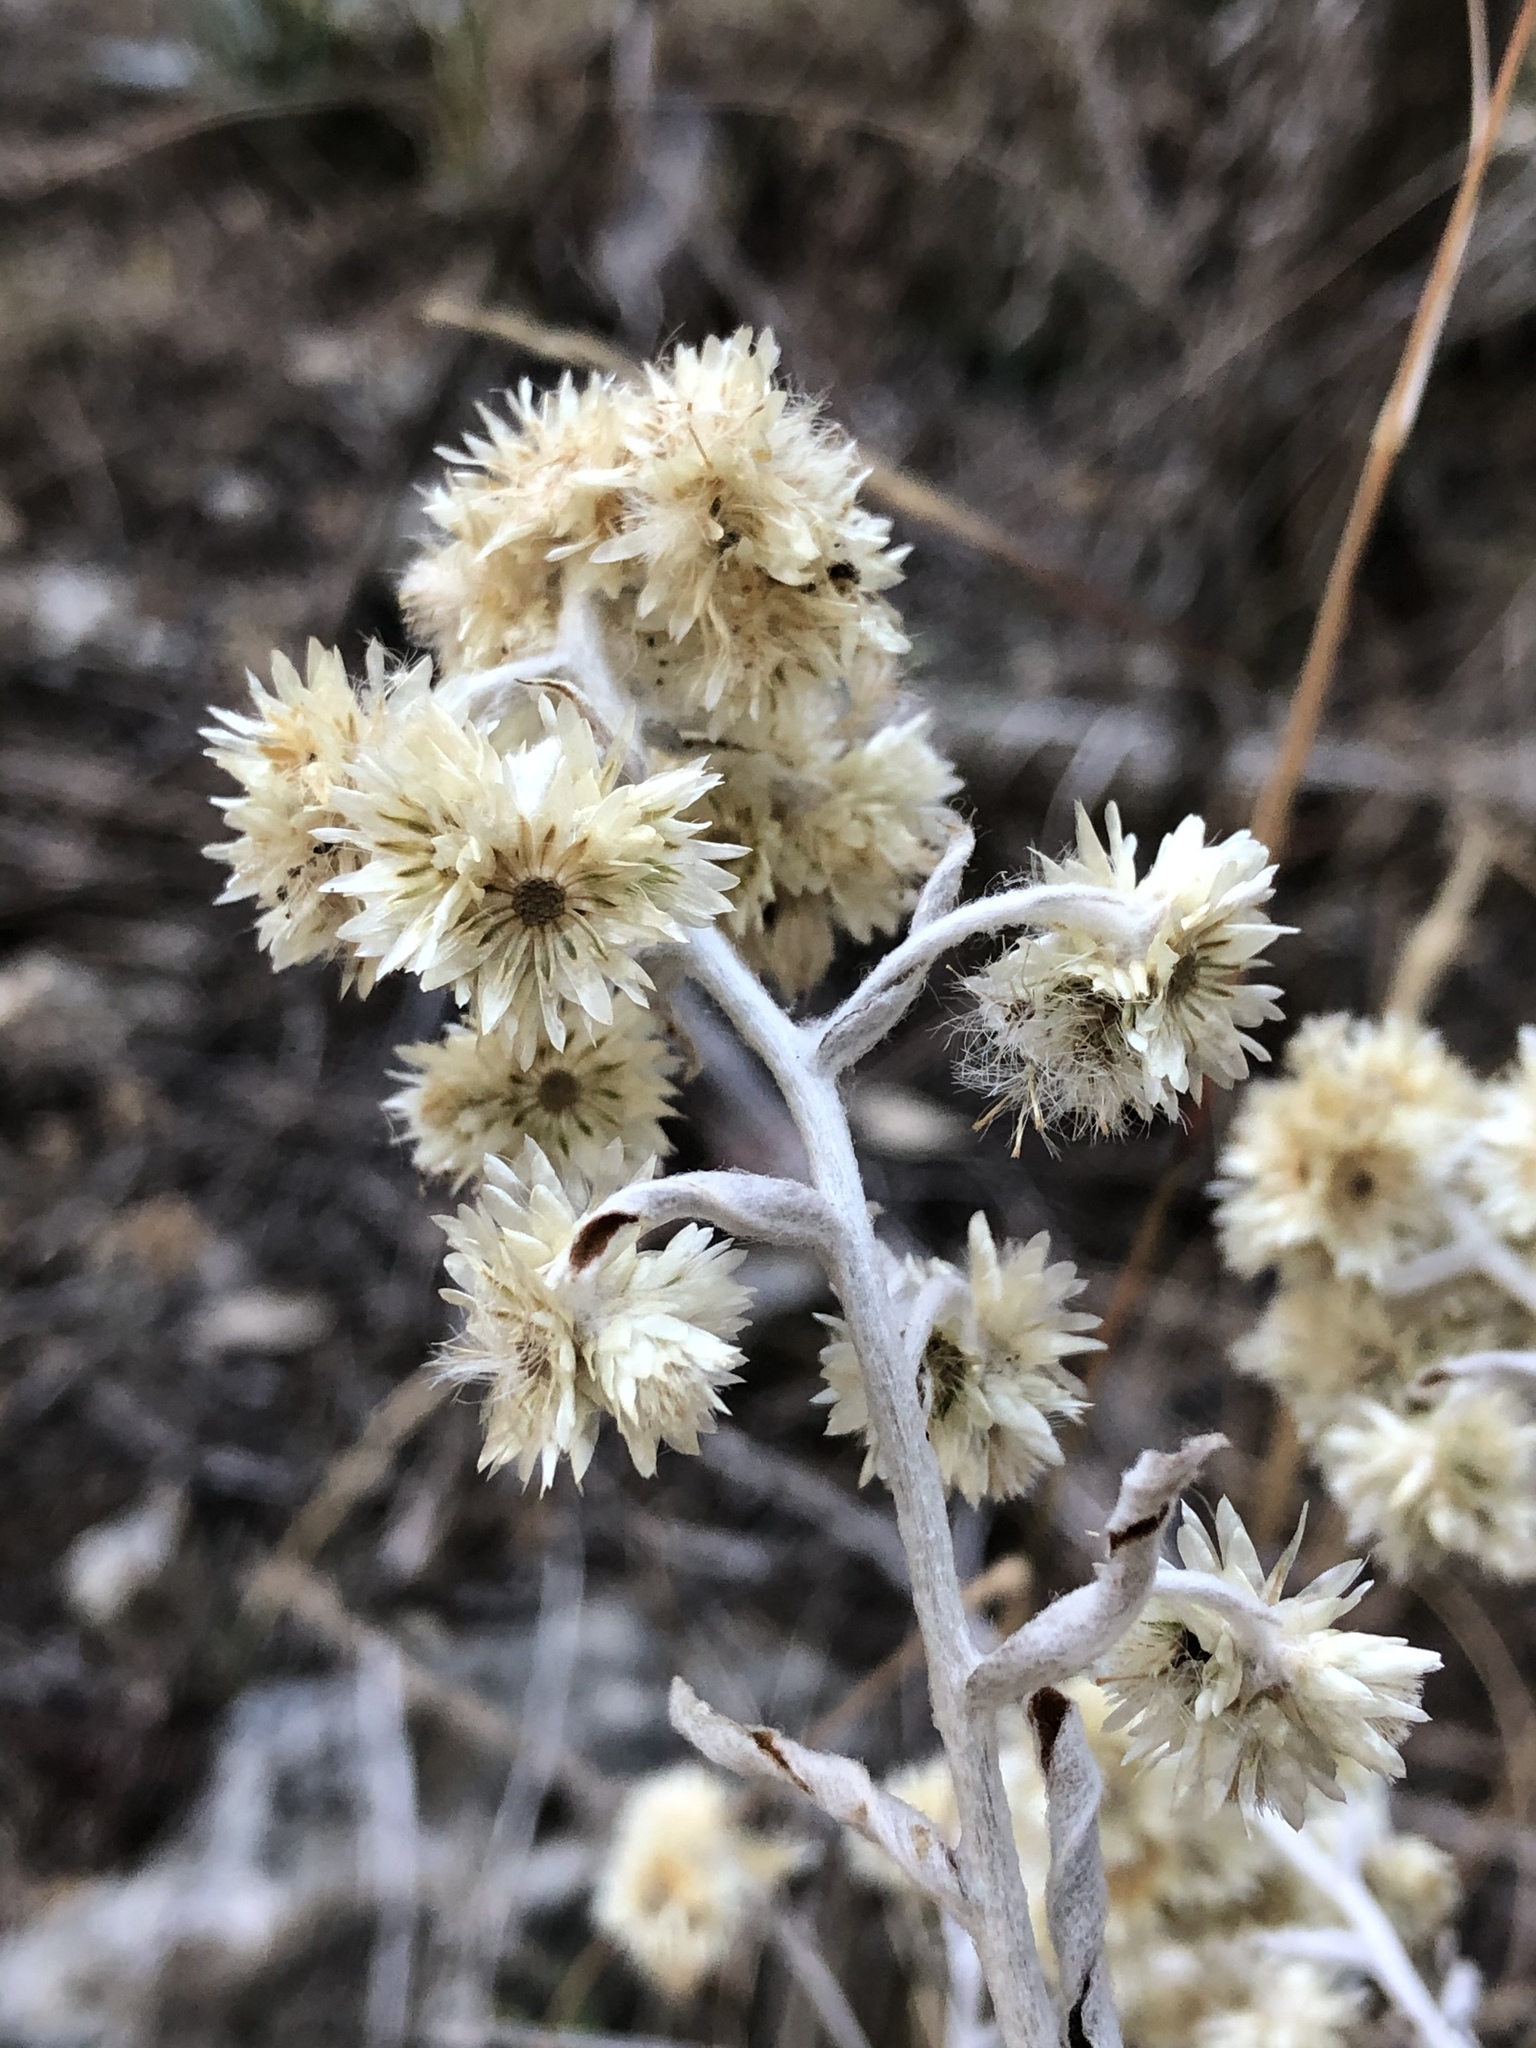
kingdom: Plantae
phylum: Tracheophyta
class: Magnoliopsida
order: Asterales
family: Asteraceae
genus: Pseudognaphalium
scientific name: Pseudognaphalium obtusifolium
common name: Eastern rabbit-tobacco
